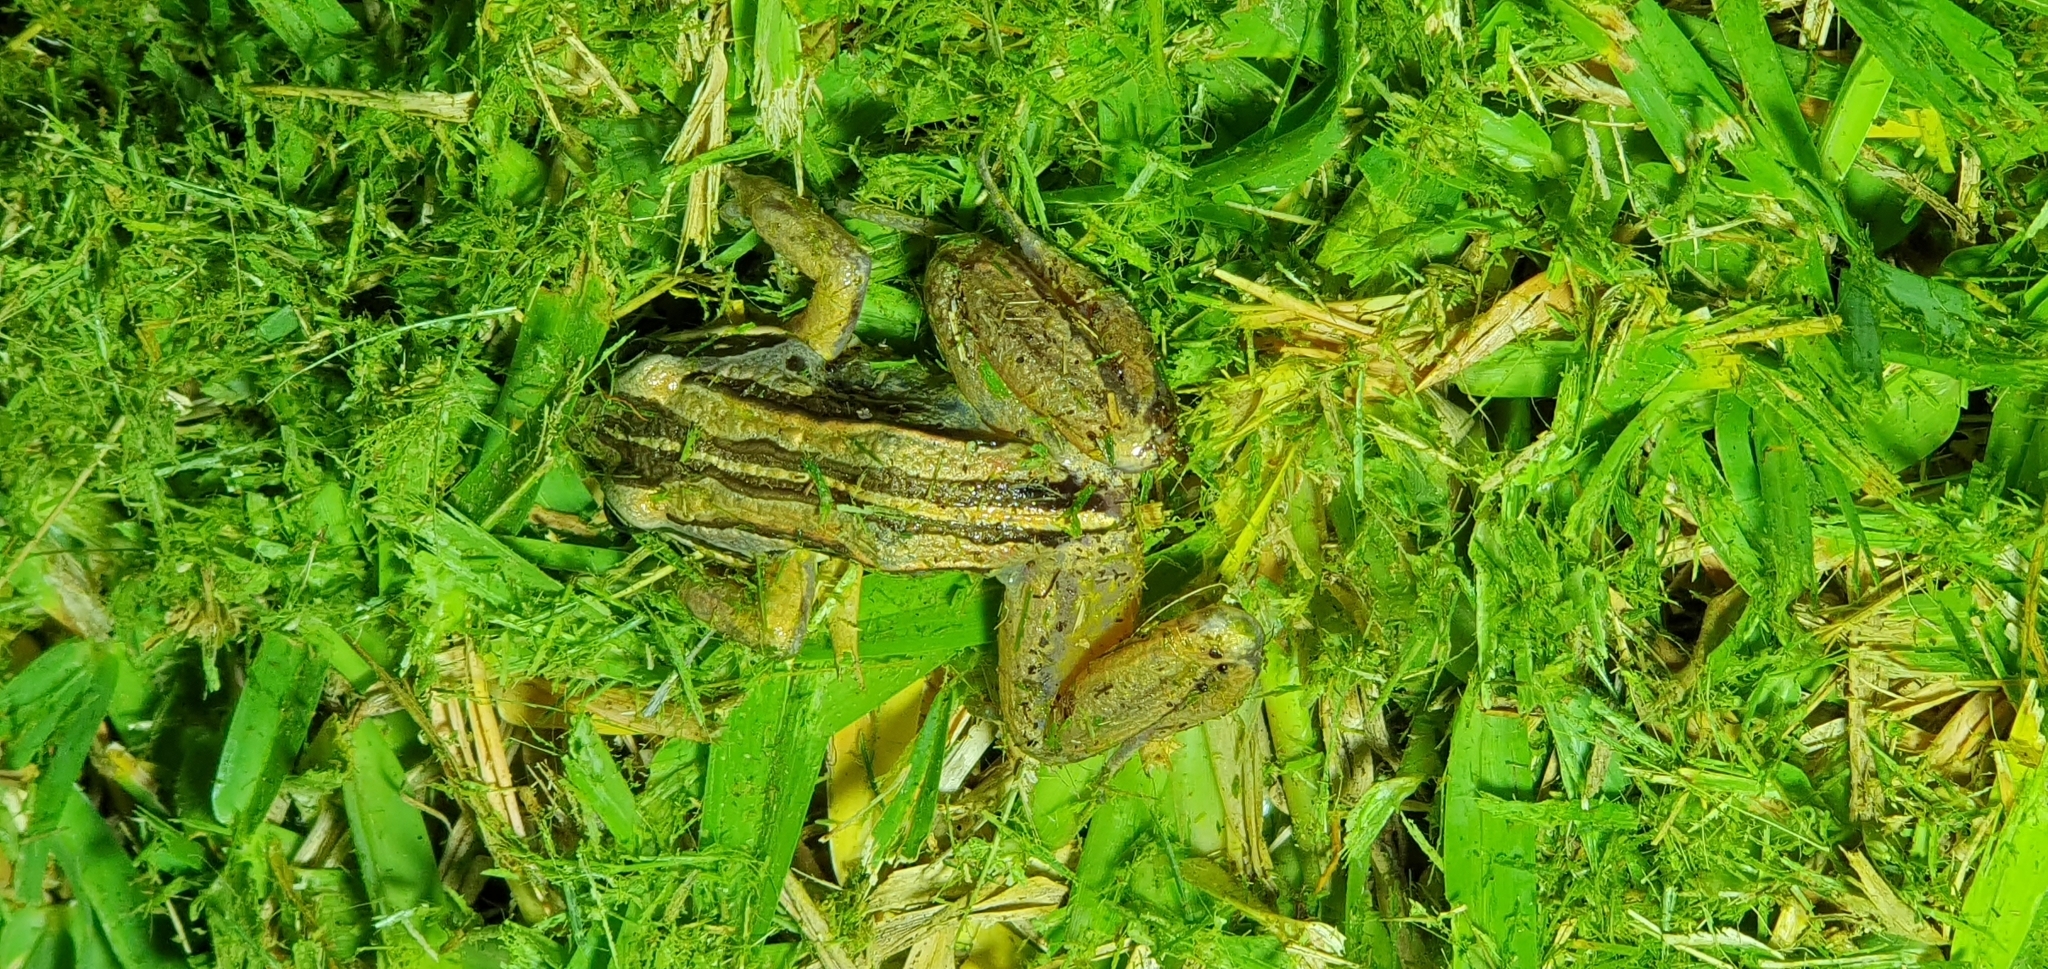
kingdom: Animalia
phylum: Chordata
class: Amphibia
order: Anura
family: Limnodynastidae
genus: Limnodynastes
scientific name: Limnodynastes peronii
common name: Brown frog
